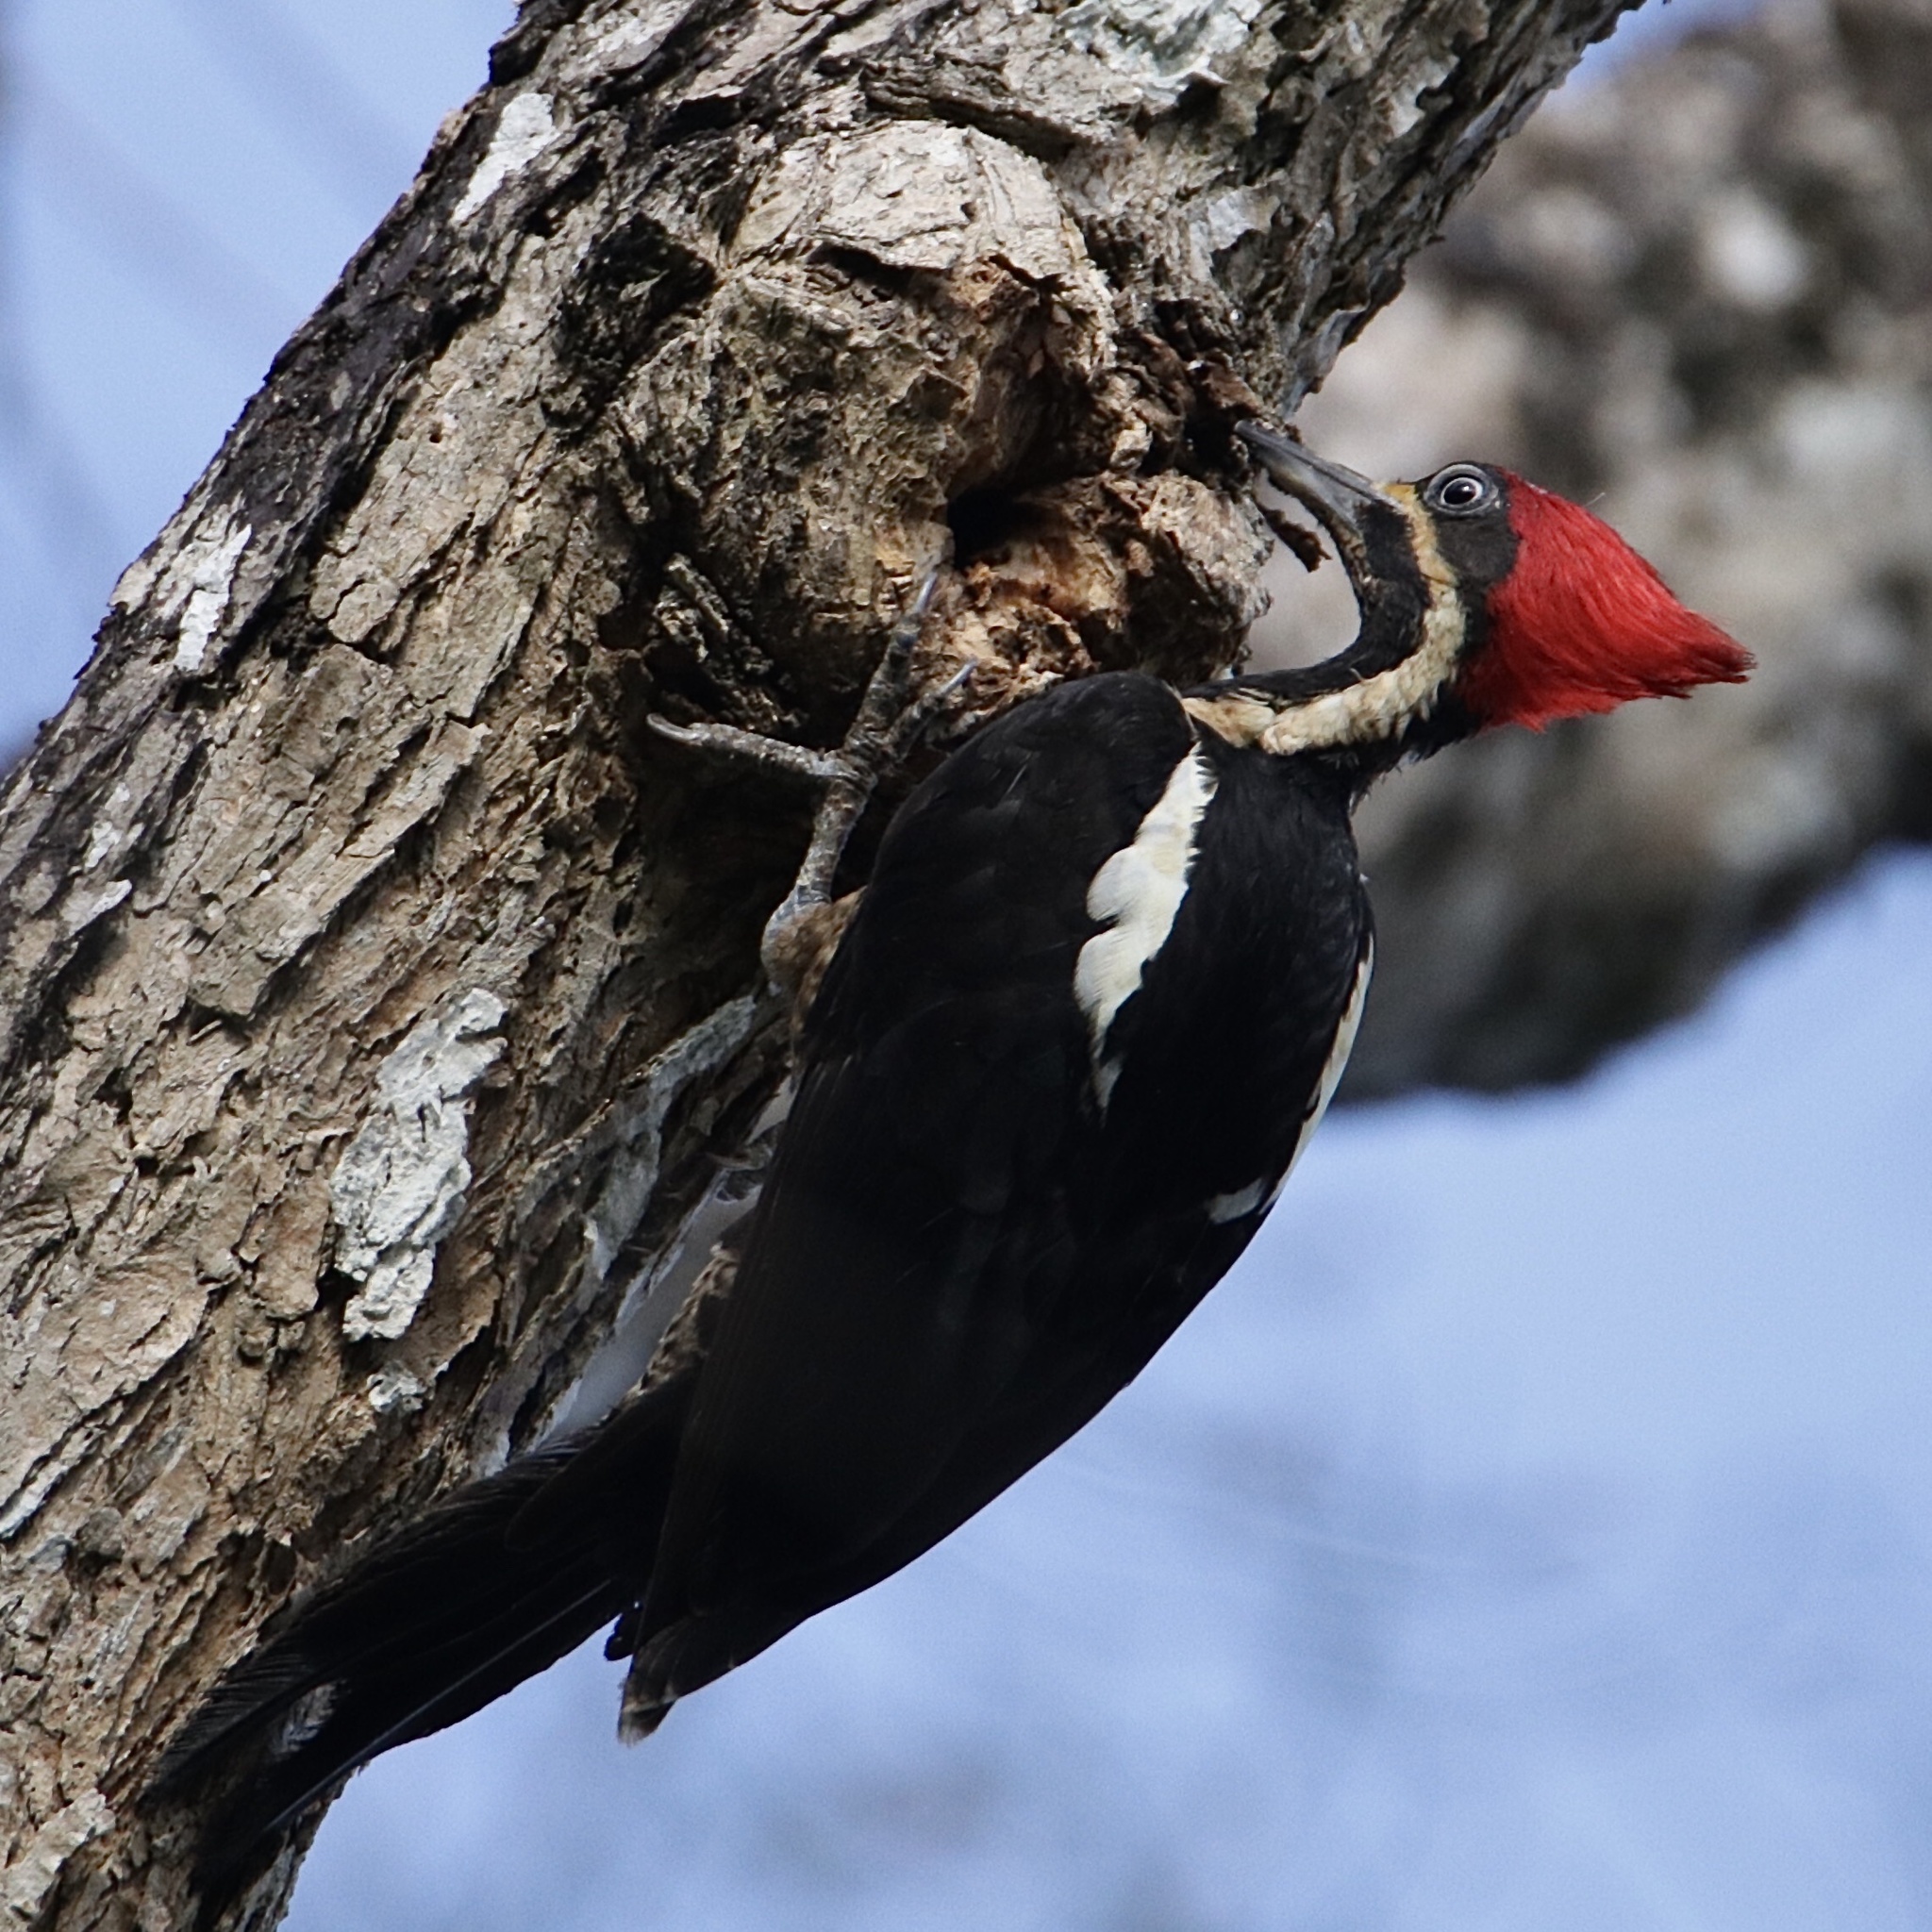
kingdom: Animalia
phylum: Chordata
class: Aves
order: Piciformes
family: Picidae
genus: Dryocopus
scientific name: Dryocopus lineatus
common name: Lineated woodpecker
